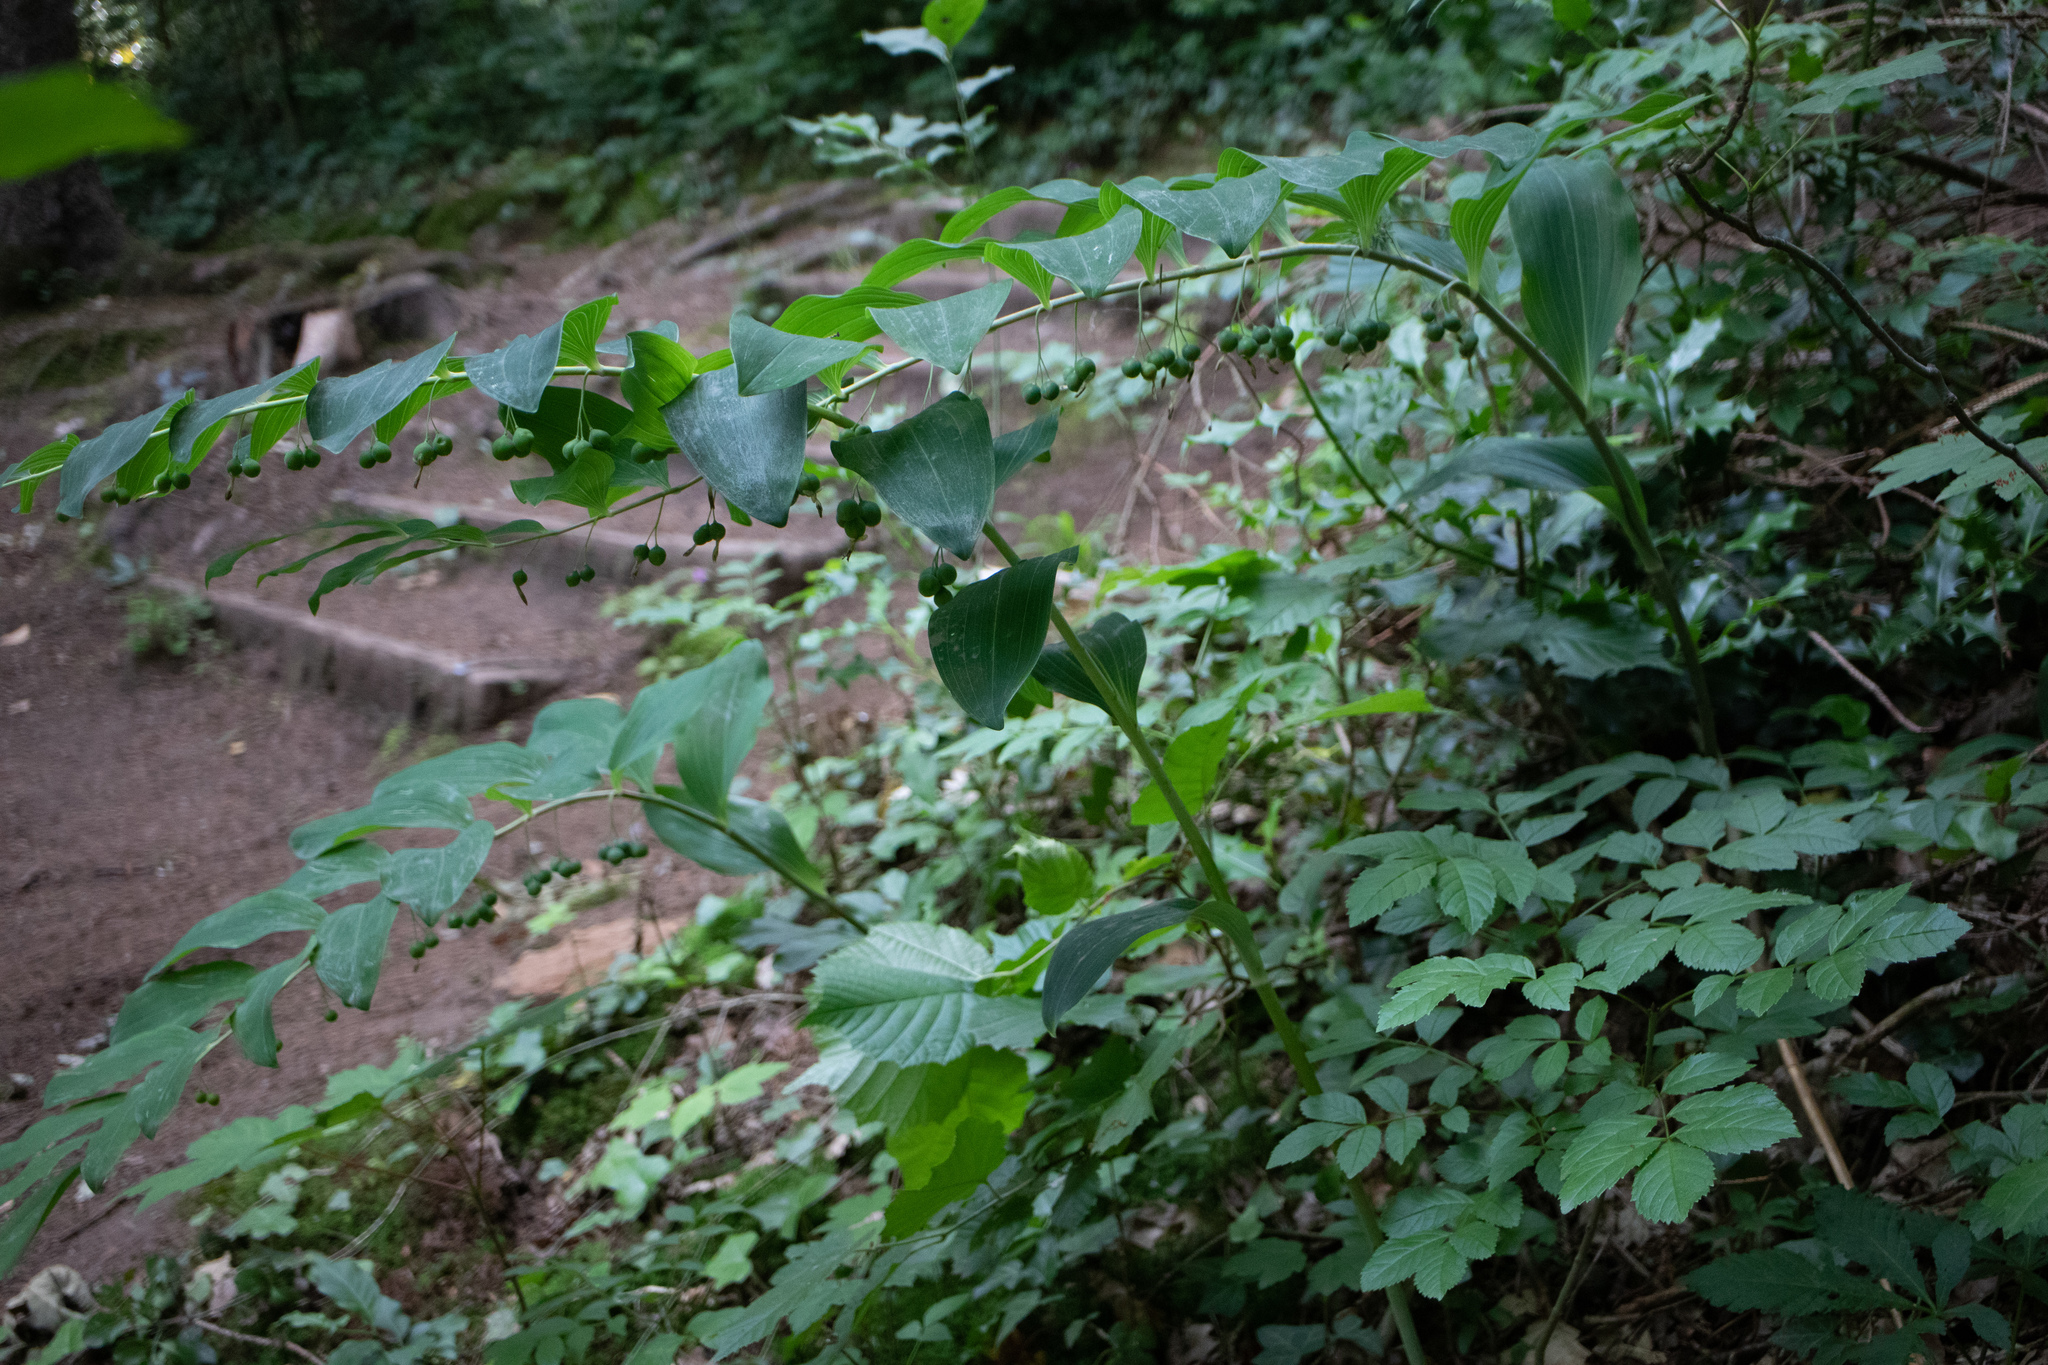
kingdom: Plantae
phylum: Tracheophyta
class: Liliopsida
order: Asparagales
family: Asparagaceae
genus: Polygonatum
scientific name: Polygonatum multiflorum
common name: Solomon's-seal
